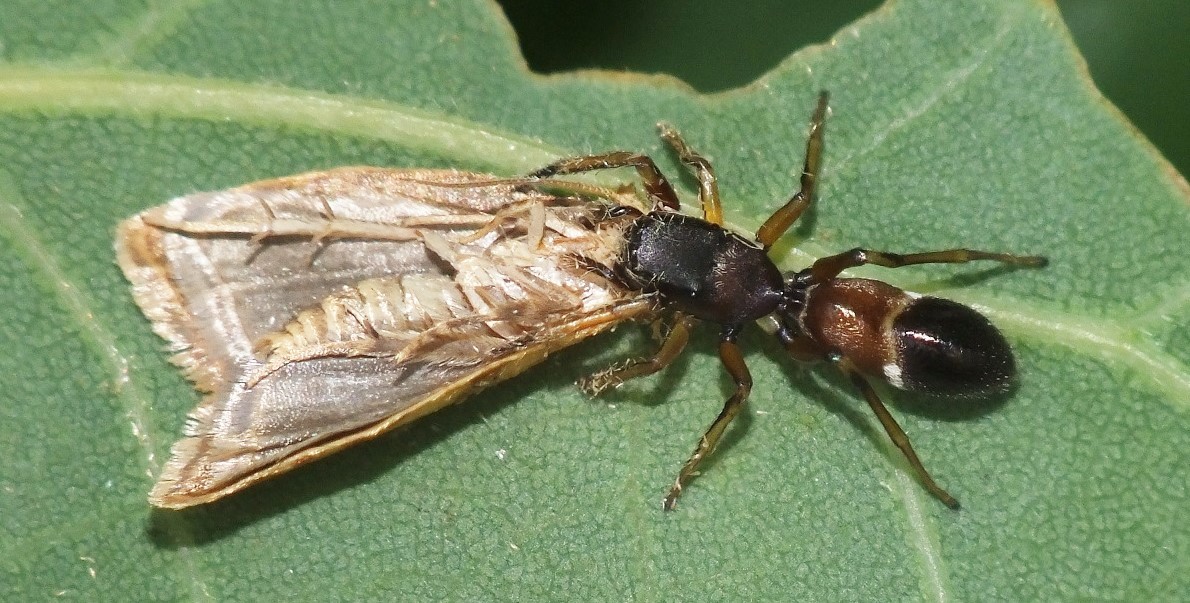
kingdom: Animalia
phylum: Arthropoda
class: Arachnida
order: Araneae
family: Salticidae
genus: Myrmarachne
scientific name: Myrmarachne formicaria
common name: Ant mimic jumping spider
